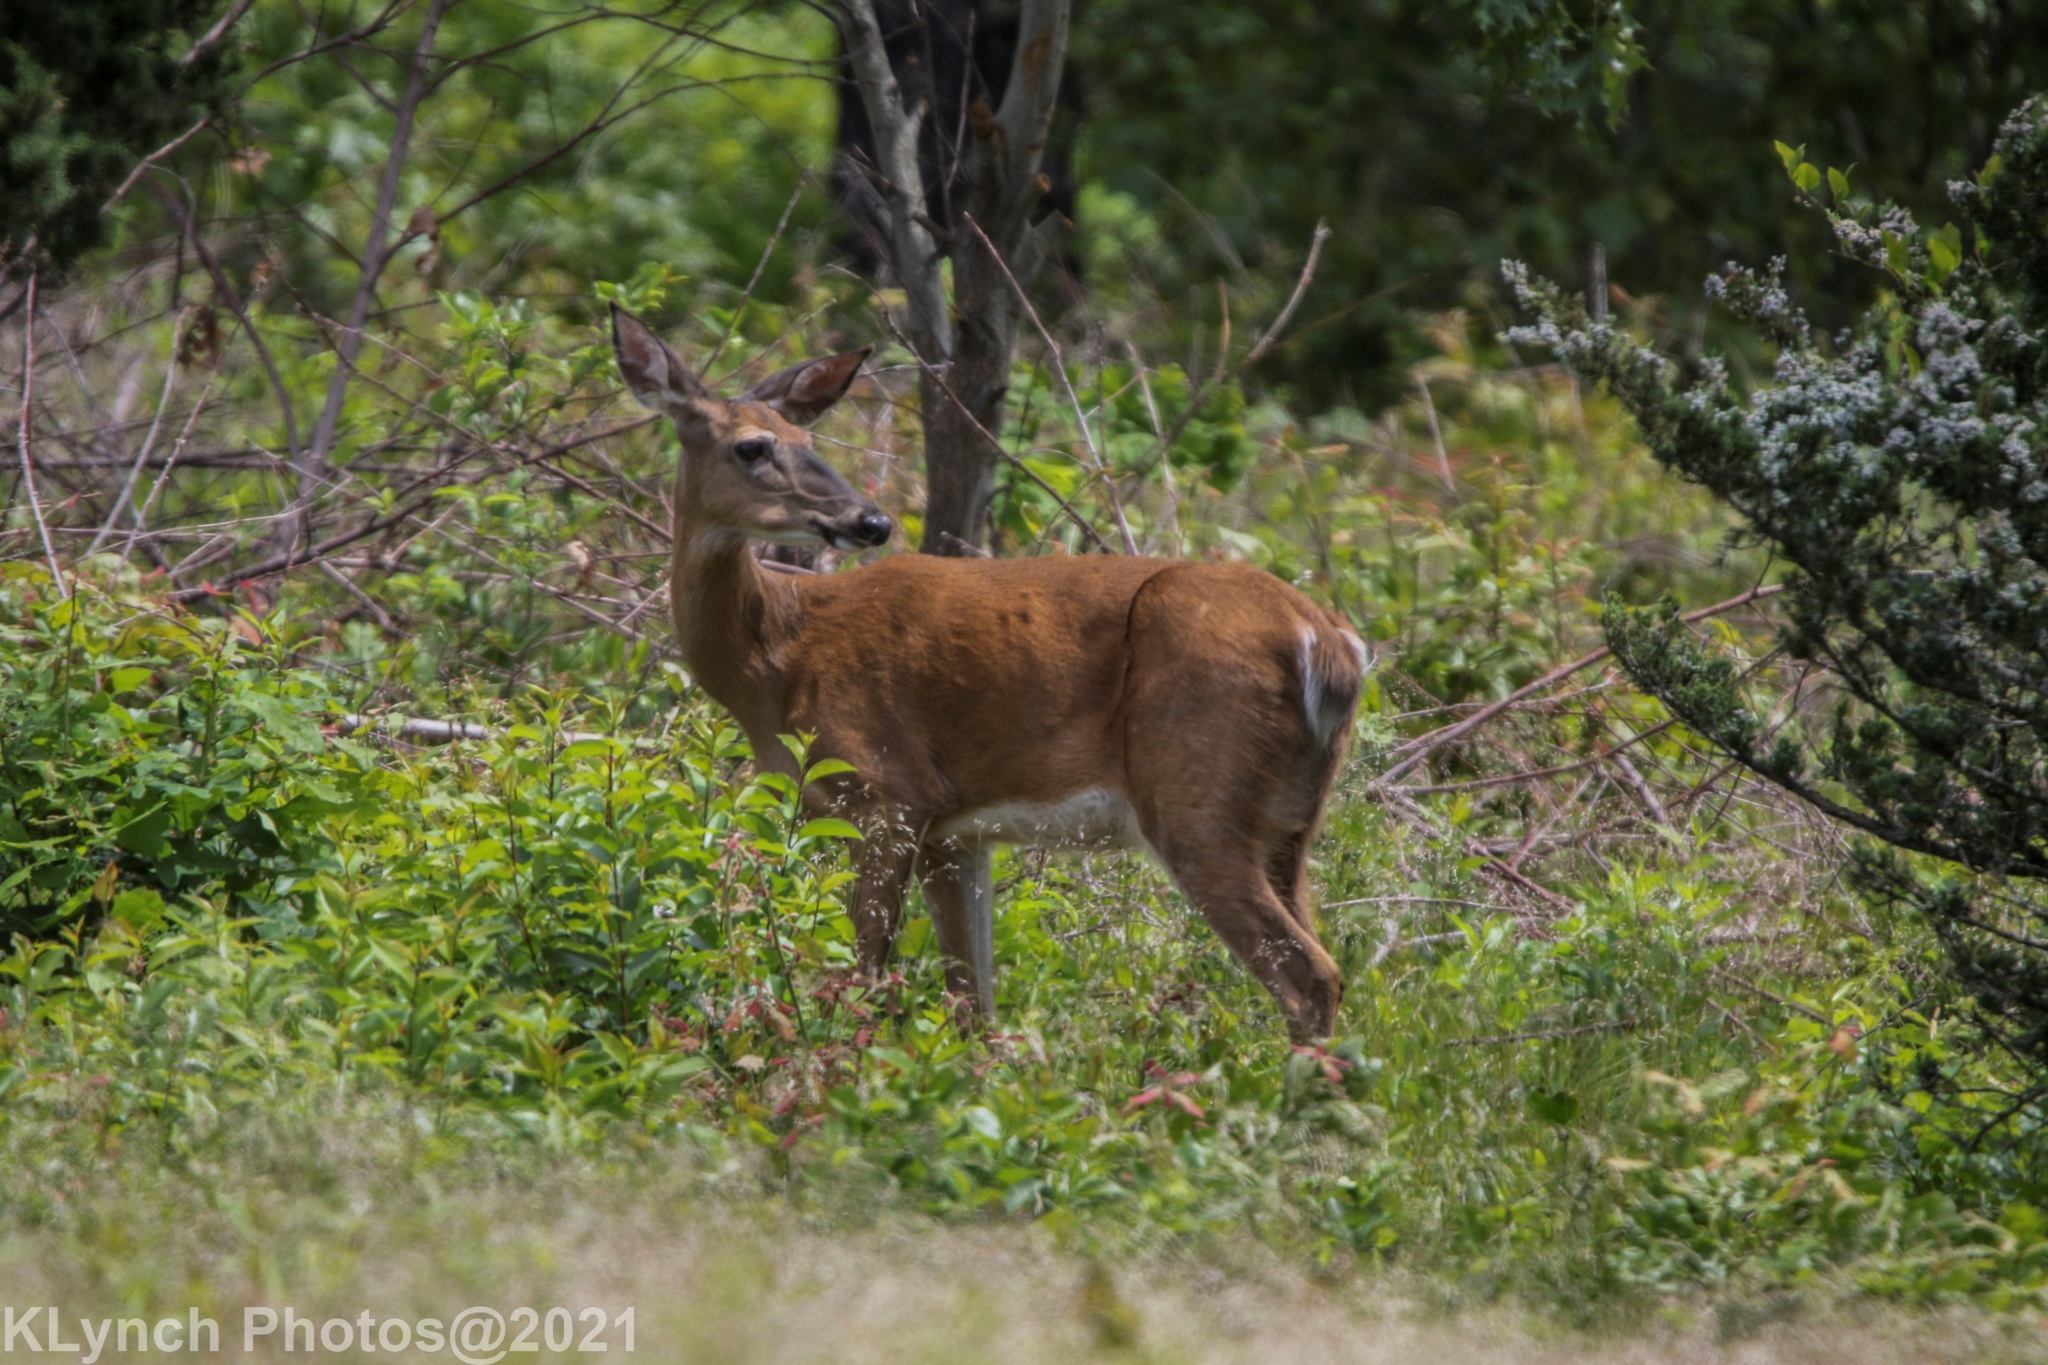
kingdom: Animalia
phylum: Chordata
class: Mammalia
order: Artiodactyla
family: Cervidae
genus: Odocoileus
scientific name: Odocoileus virginianus
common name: White-tailed deer
